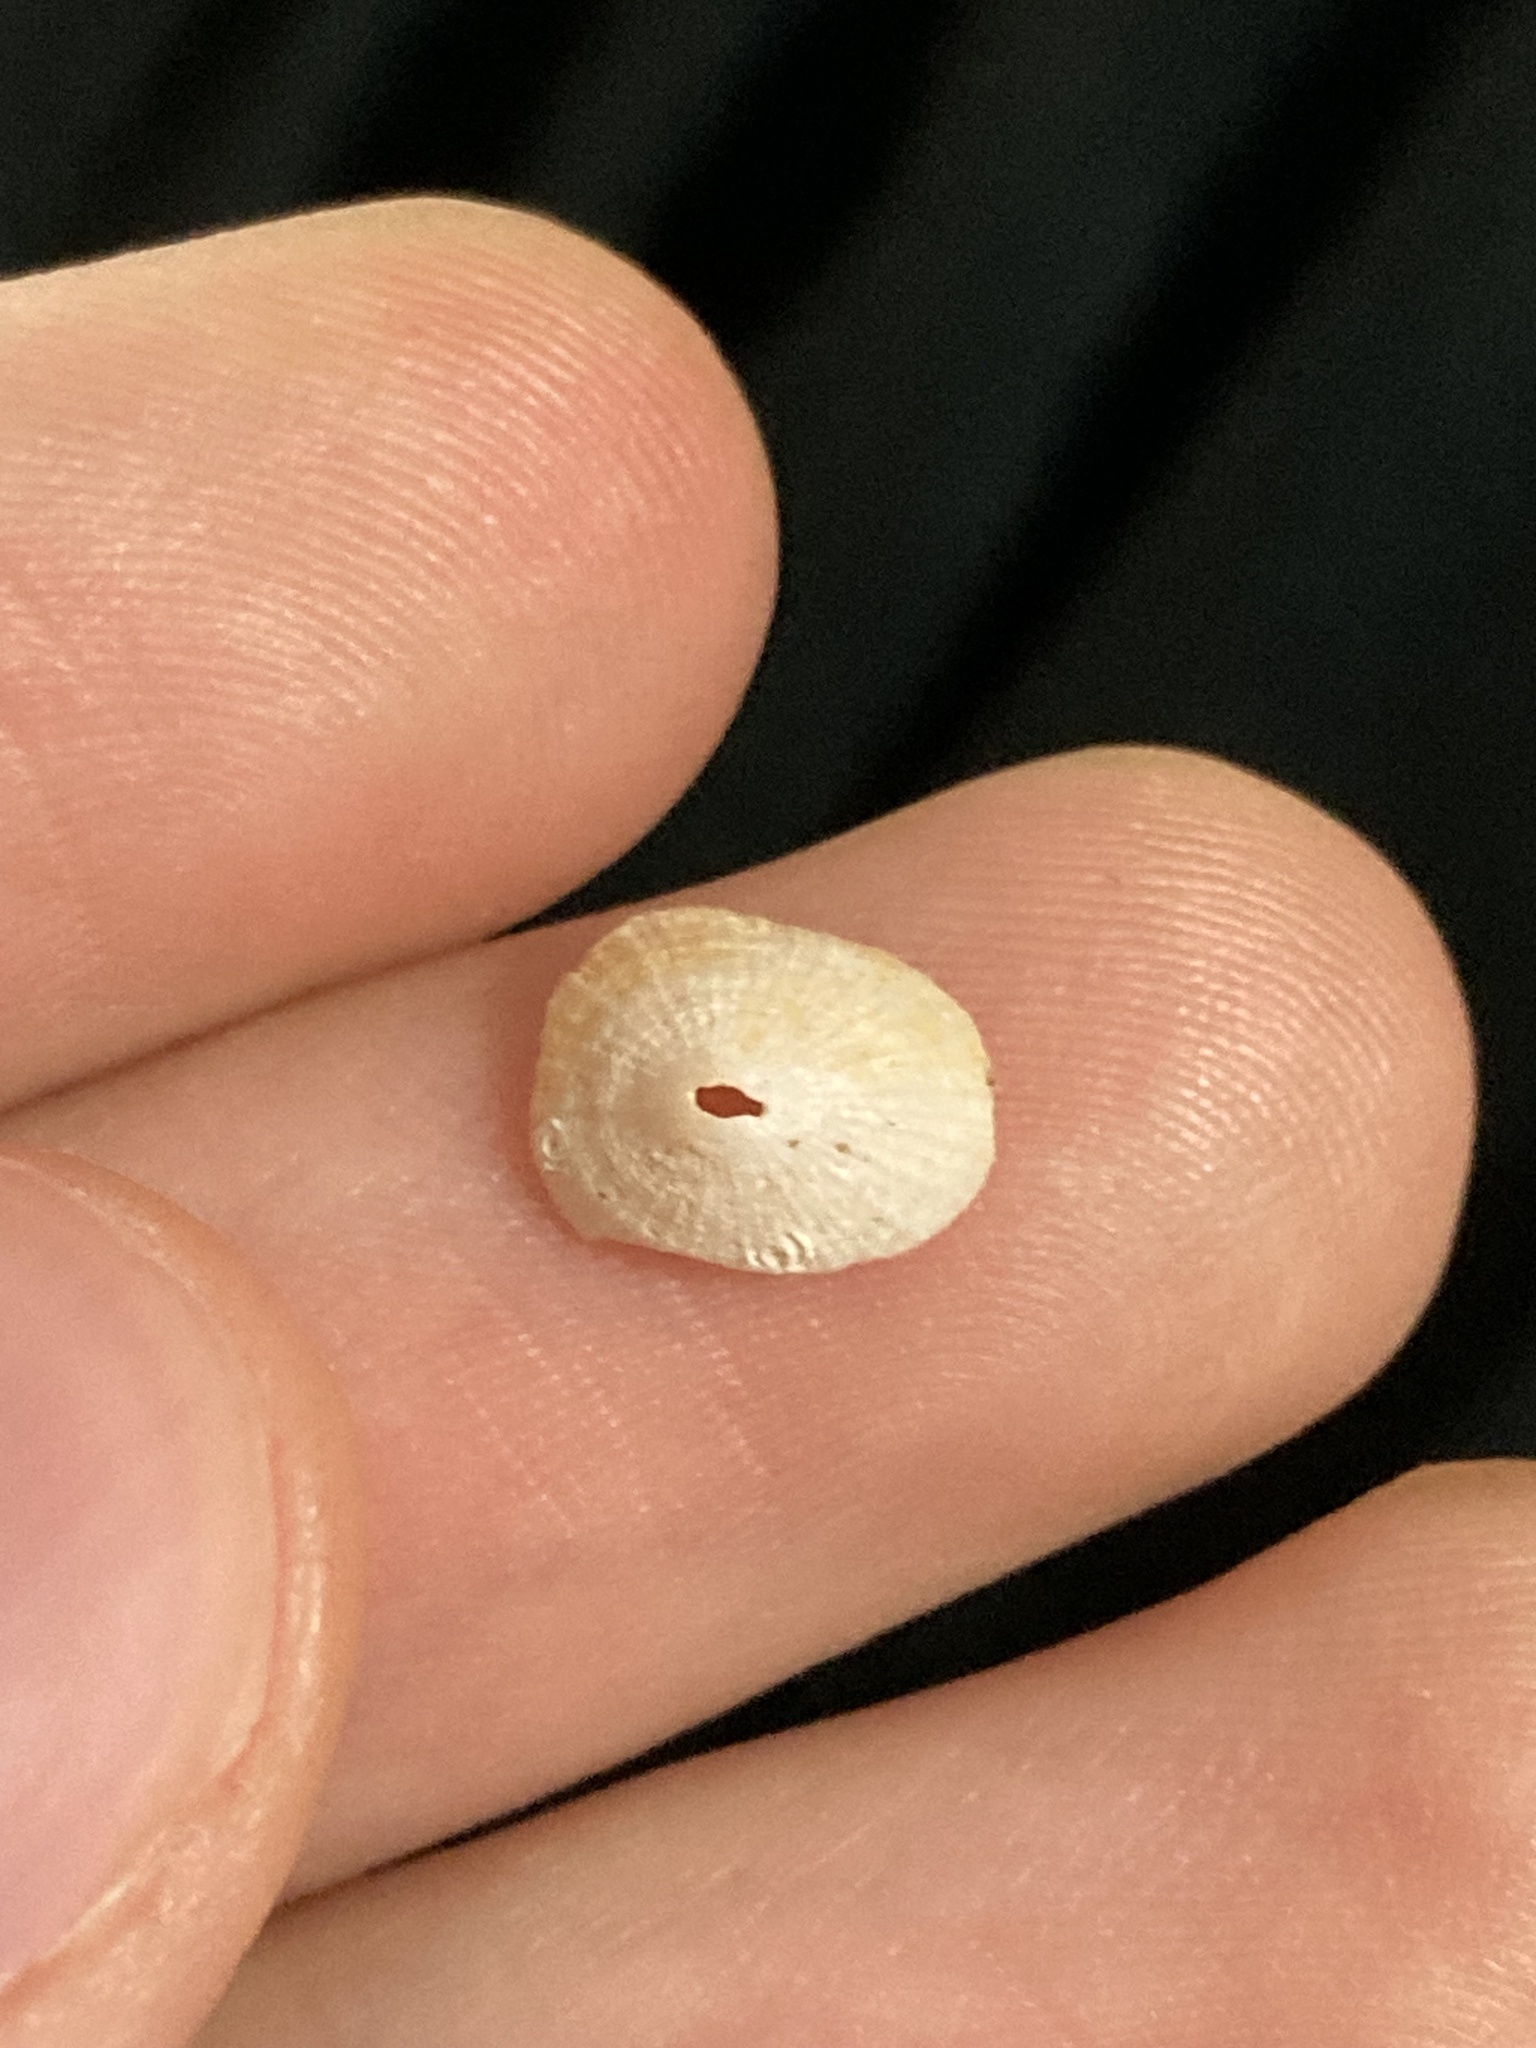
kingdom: Animalia
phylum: Mollusca
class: Gastropoda
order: Lepetellida
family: Fissurellidae
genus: Diodora
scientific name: Diodora ticaonica
